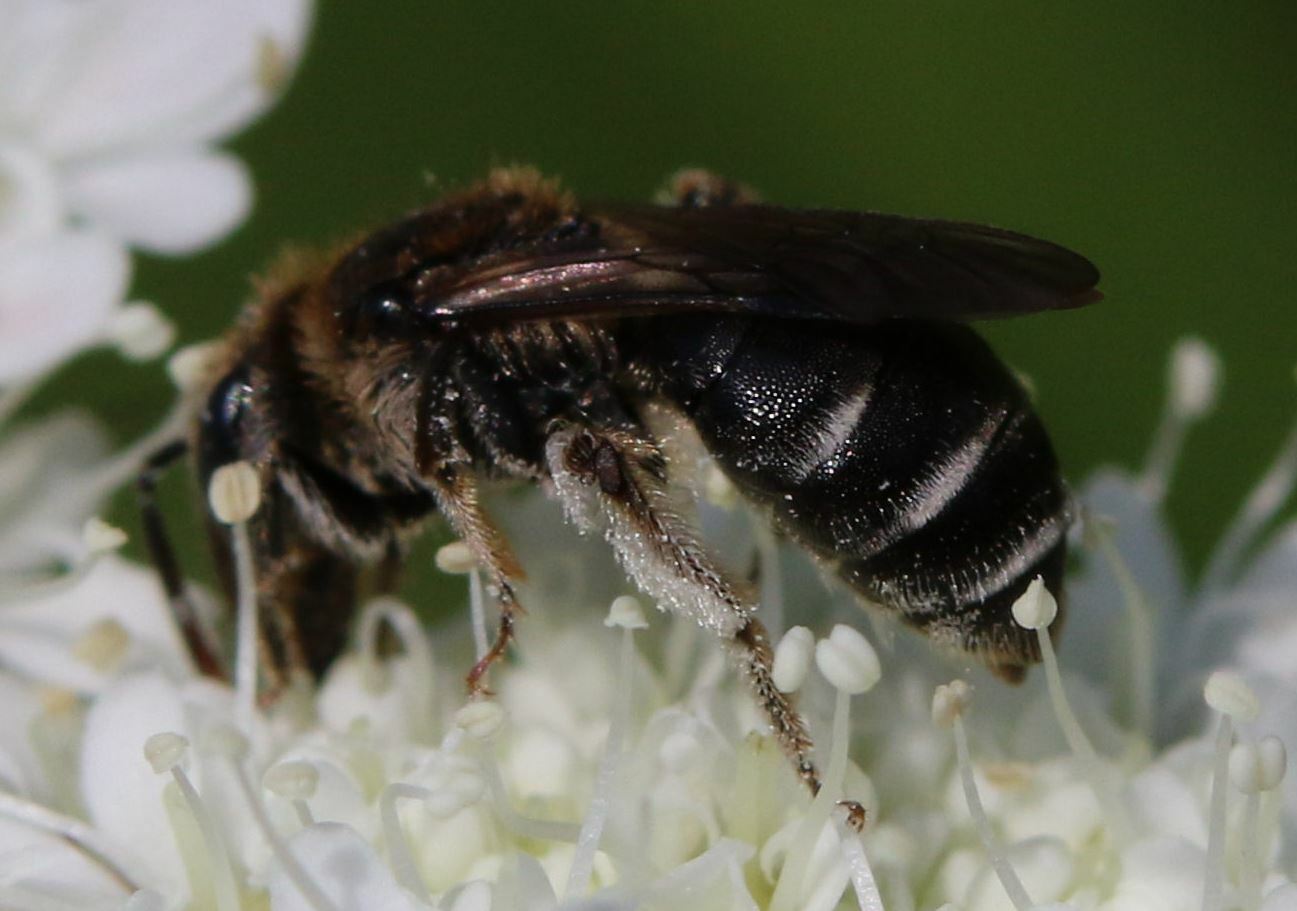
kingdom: Animalia
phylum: Arthropoda
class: Insecta
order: Hymenoptera
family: Andrenidae
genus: Andrena
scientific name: Andrena colletiformis
